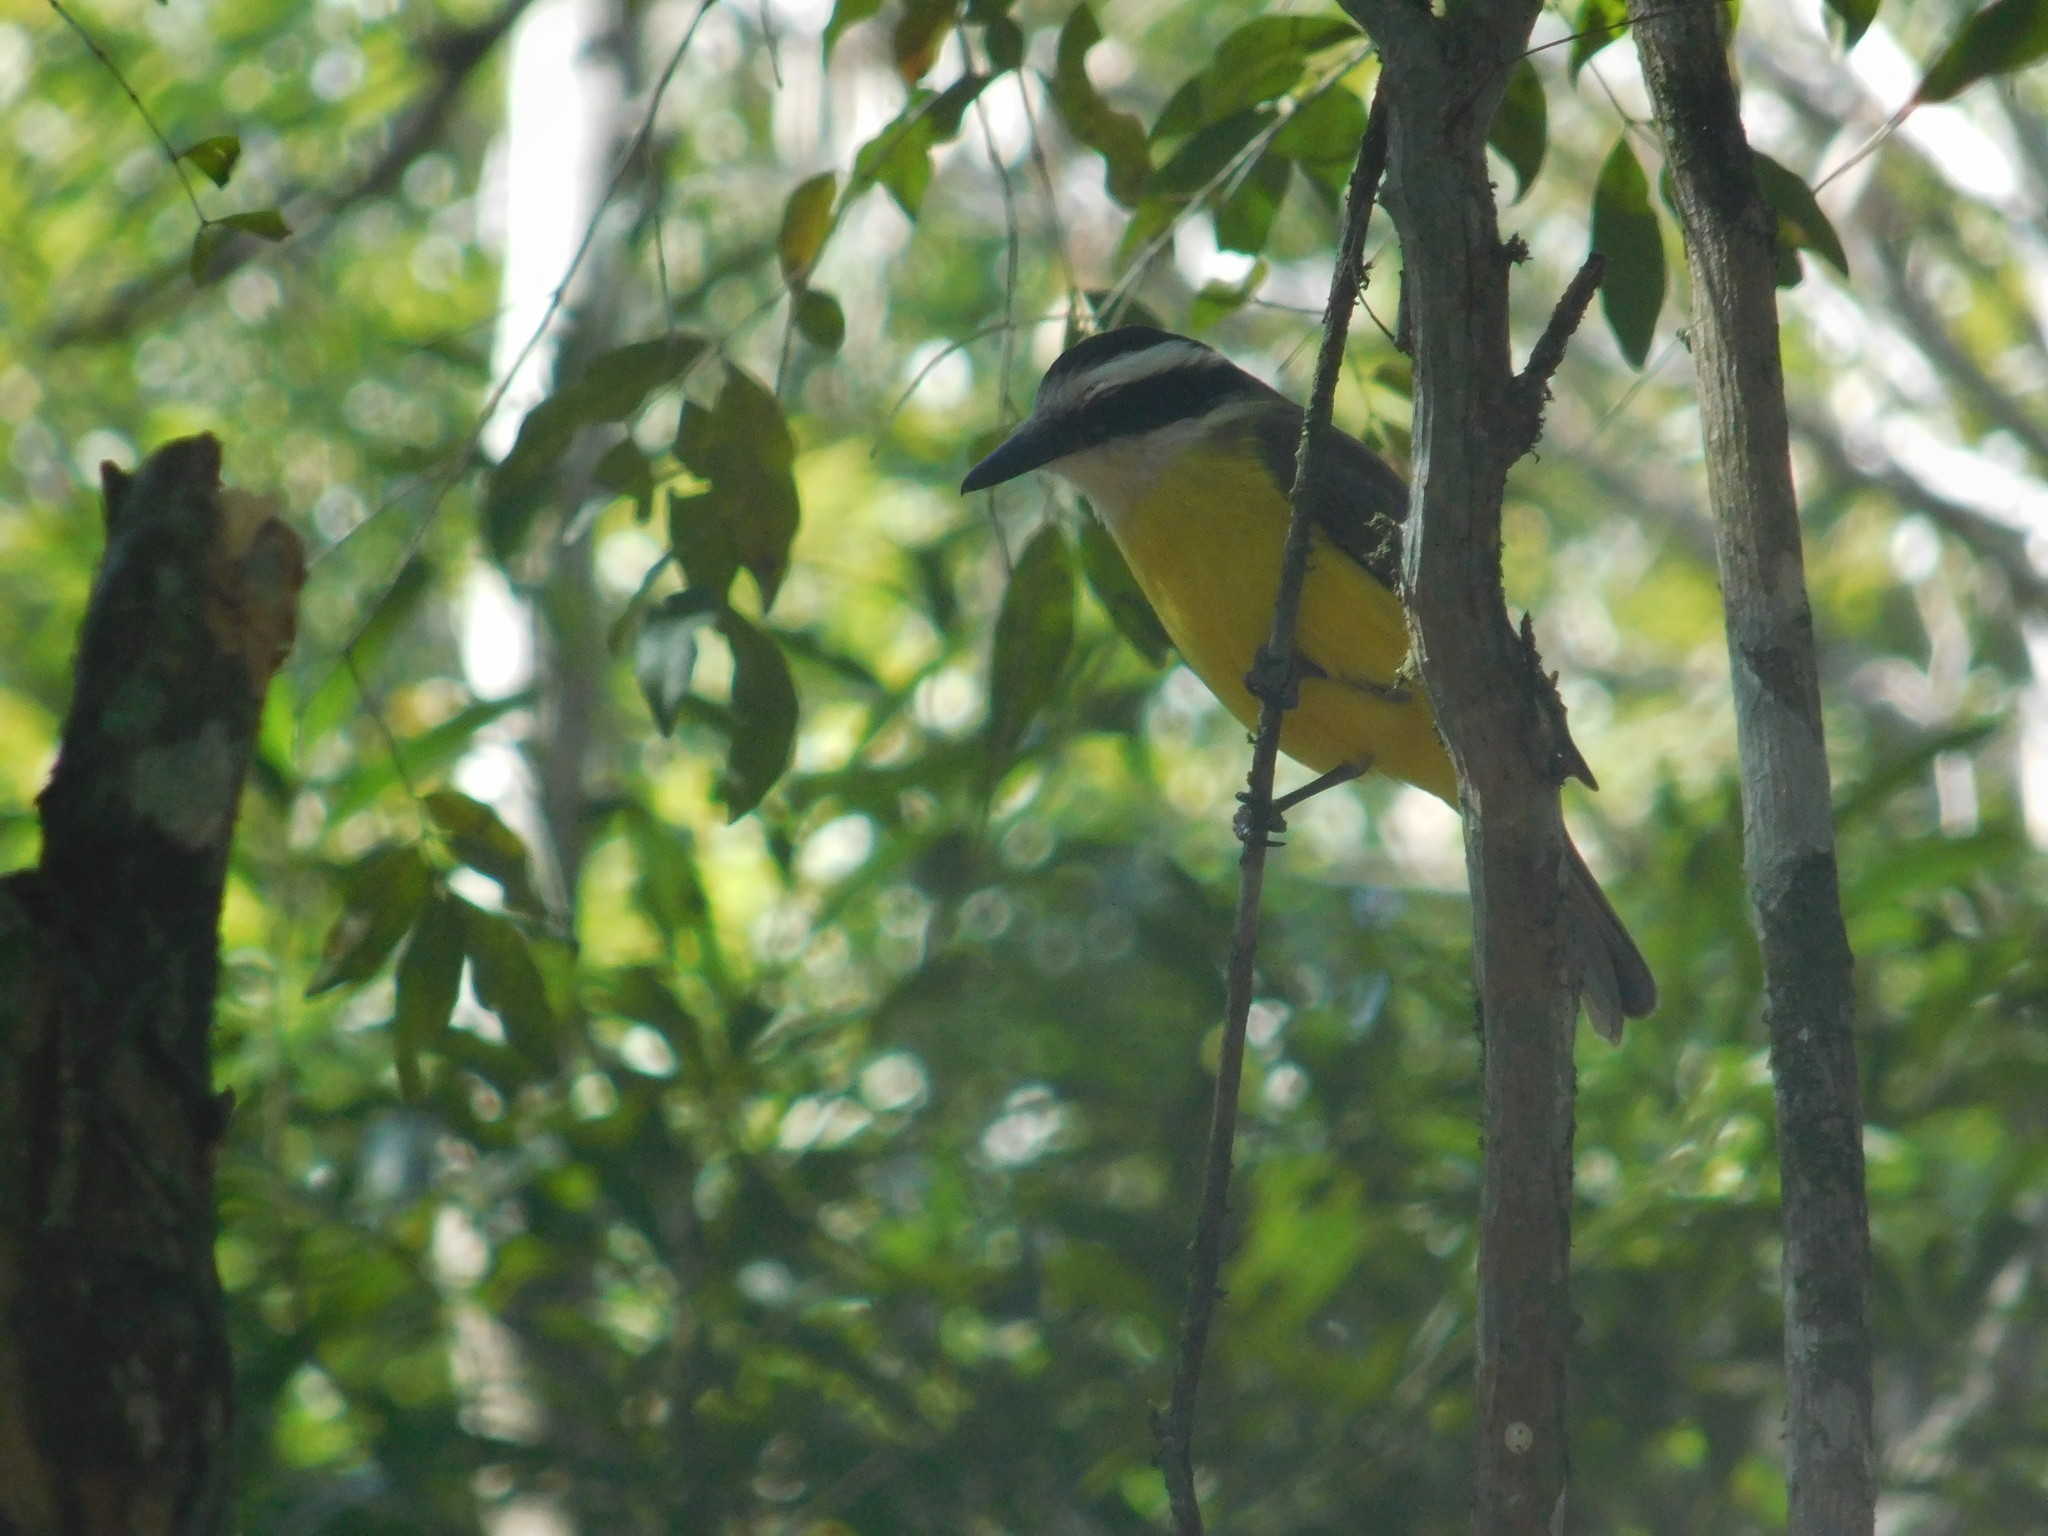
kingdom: Animalia
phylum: Chordata
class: Aves
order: Passeriformes
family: Tyrannidae
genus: Pitangus
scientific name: Pitangus sulphuratus
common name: Great kiskadee
